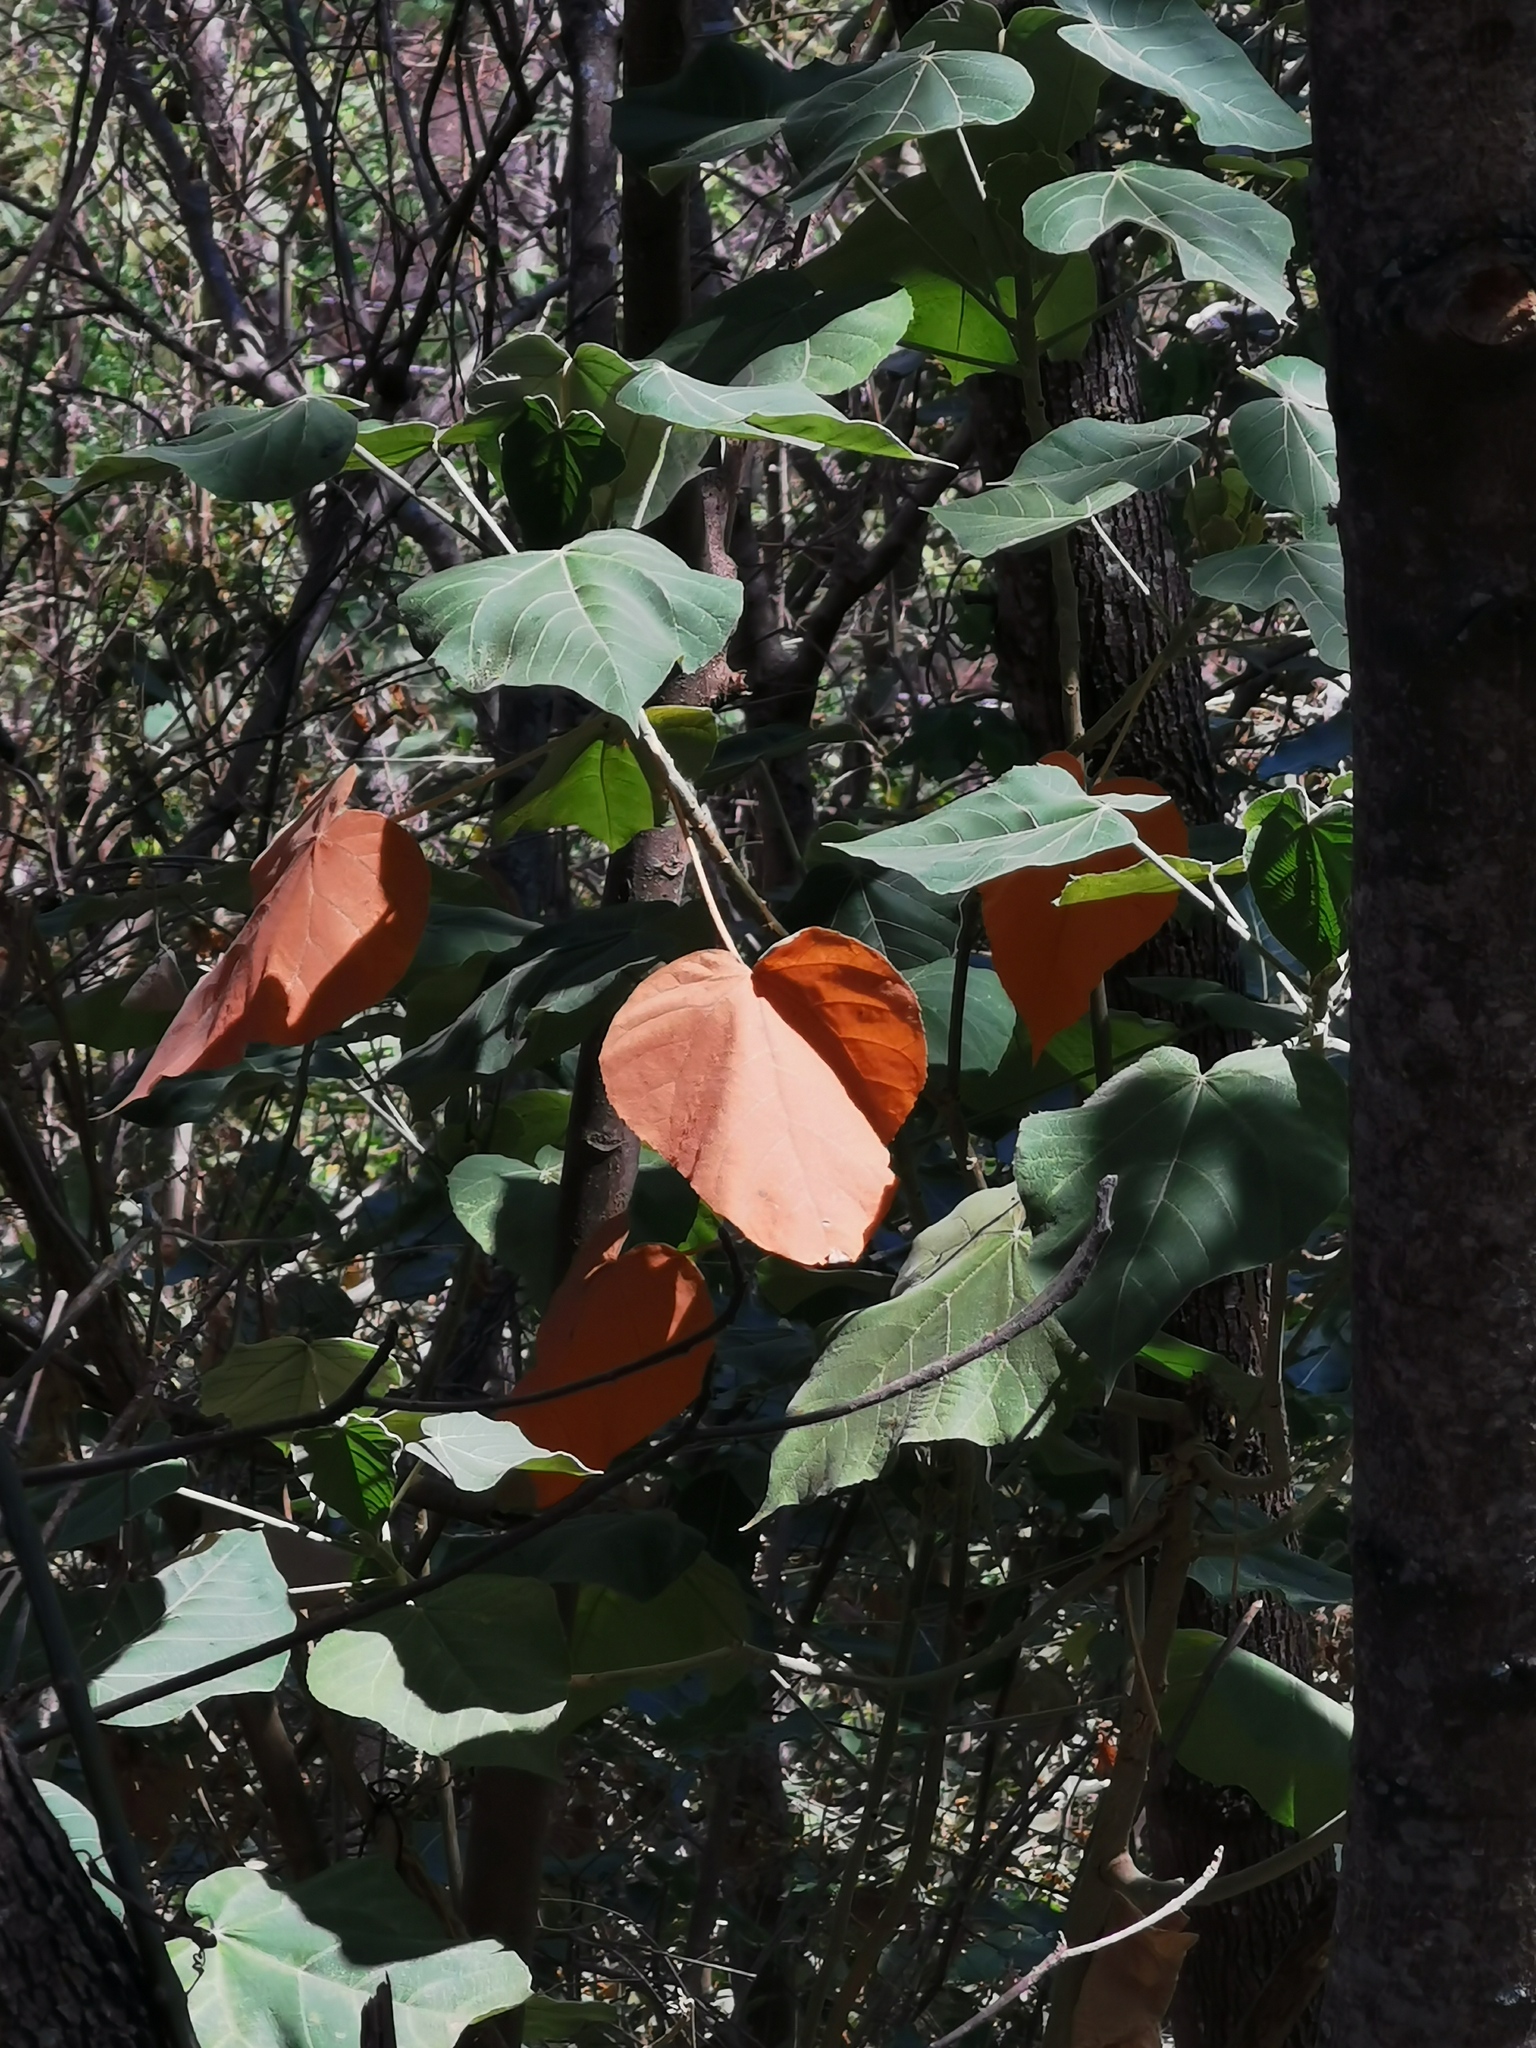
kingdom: Plantae
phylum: Tracheophyta
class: Magnoliopsida
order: Malpighiales
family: Euphorbiaceae
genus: Croton
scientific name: Croton draco
